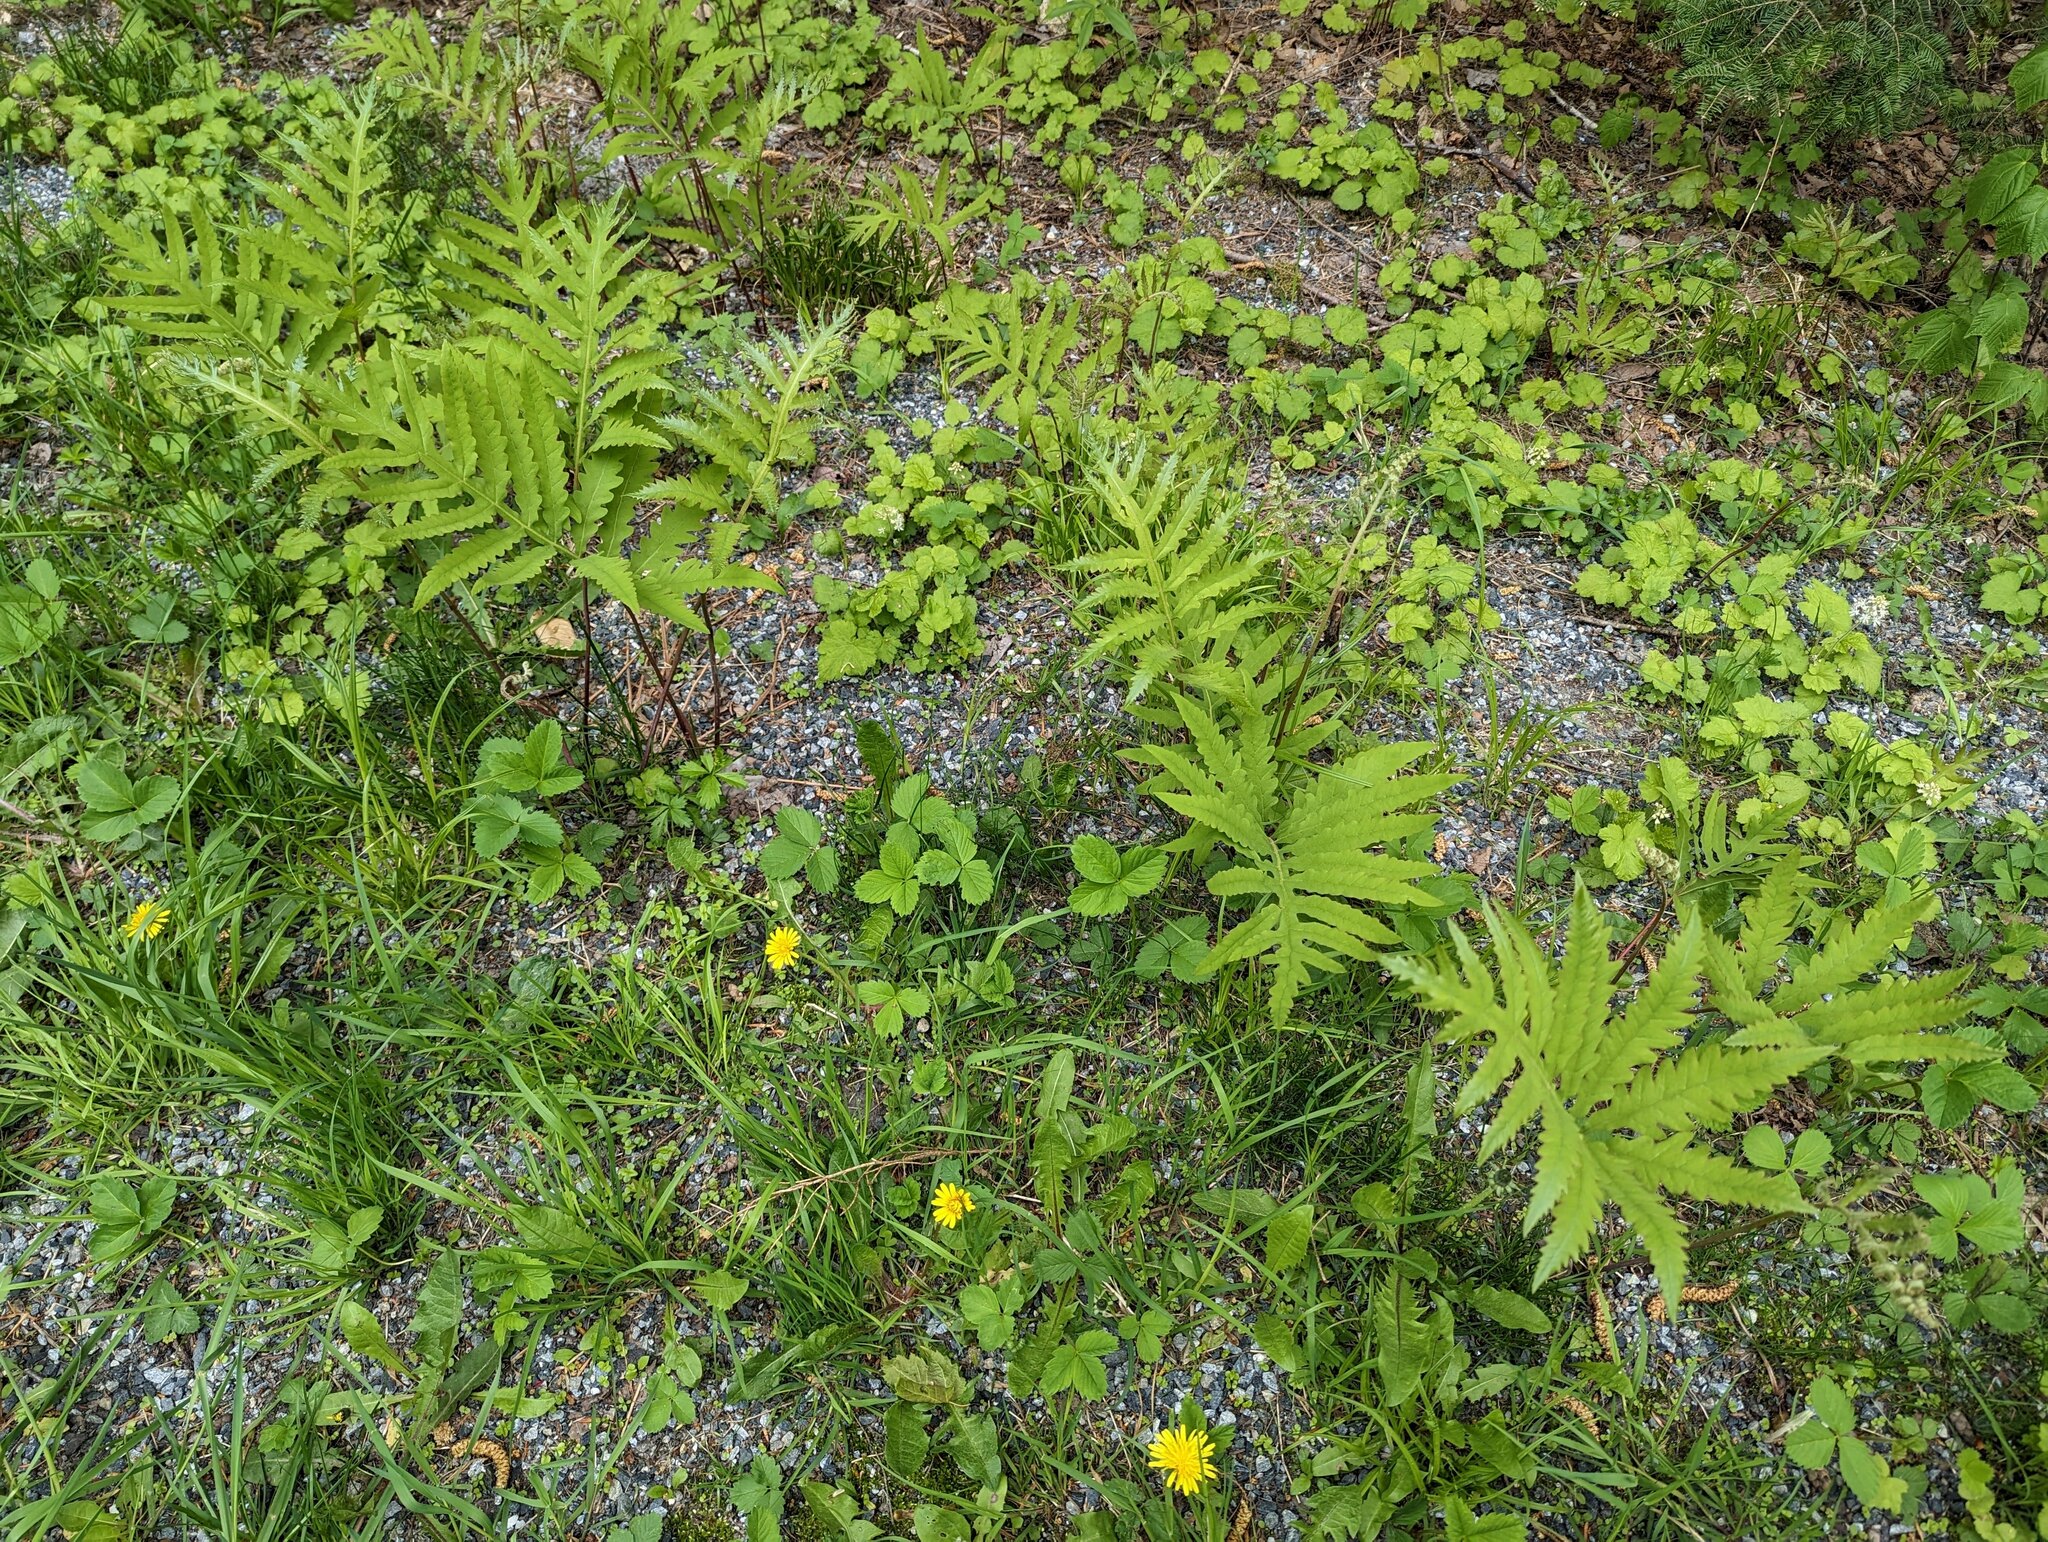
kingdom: Plantae
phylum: Tracheophyta
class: Polypodiopsida
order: Polypodiales
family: Onocleaceae
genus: Onoclea
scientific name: Onoclea sensibilis
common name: Sensitive fern
